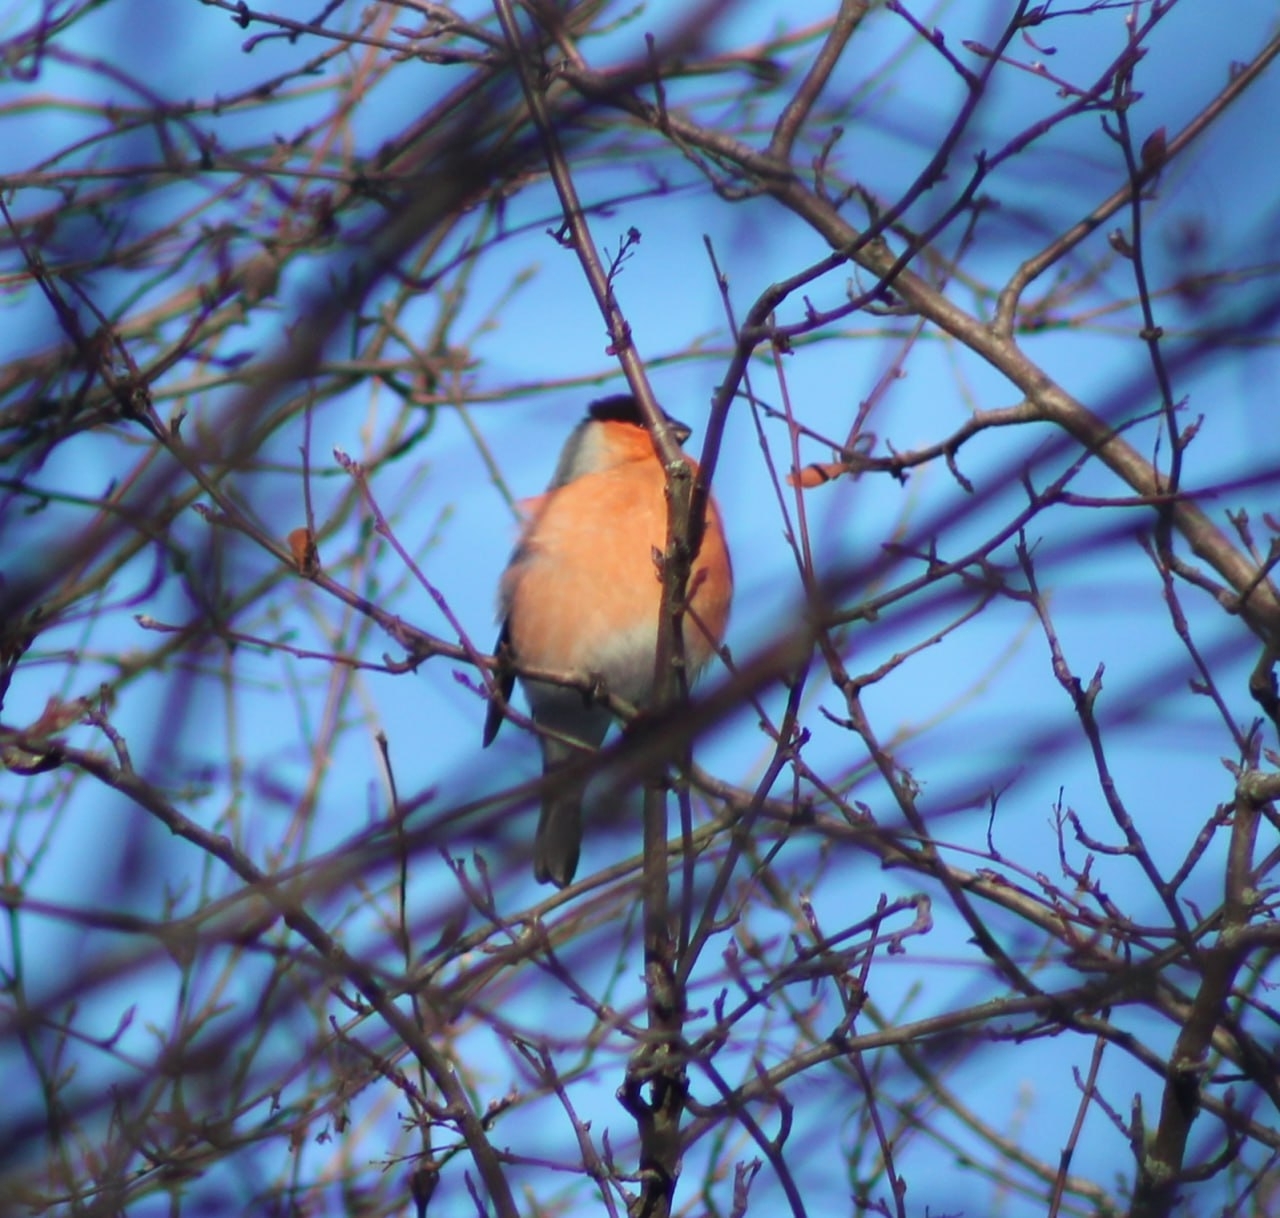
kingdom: Animalia
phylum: Chordata
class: Aves
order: Passeriformes
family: Fringillidae
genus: Pyrrhula
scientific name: Pyrrhula pyrrhula
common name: Eurasian bullfinch
